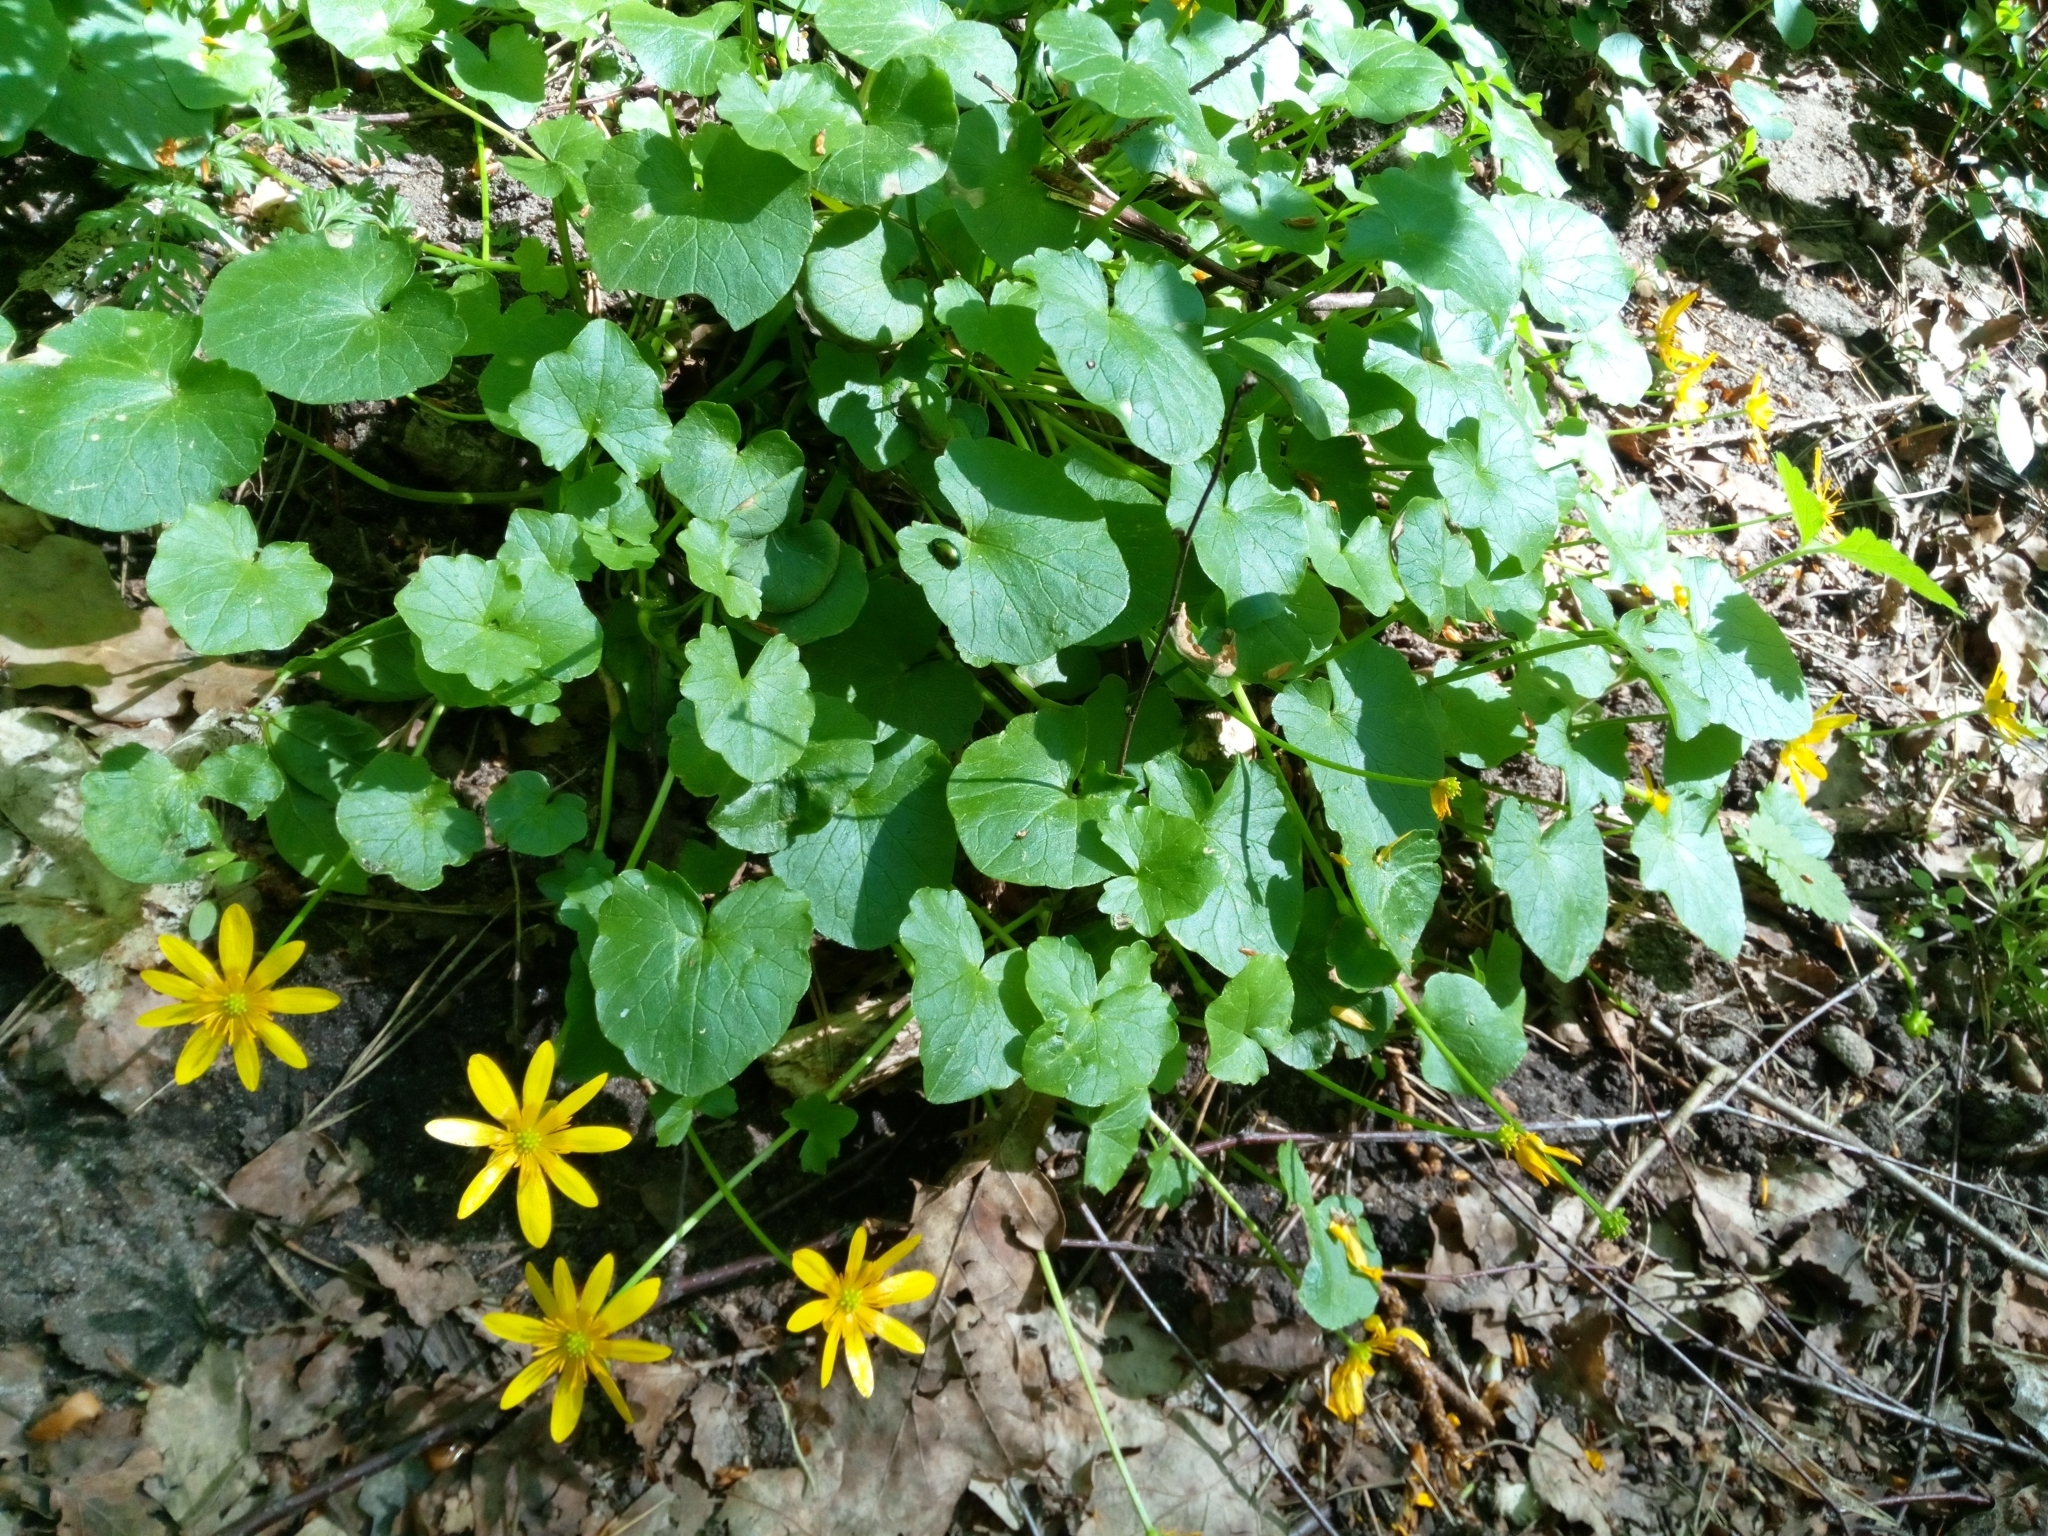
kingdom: Plantae
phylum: Tracheophyta
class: Magnoliopsida
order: Ranunculales
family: Ranunculaceae
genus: Ficaria
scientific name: Ficaria verna
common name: Lesser celandine
